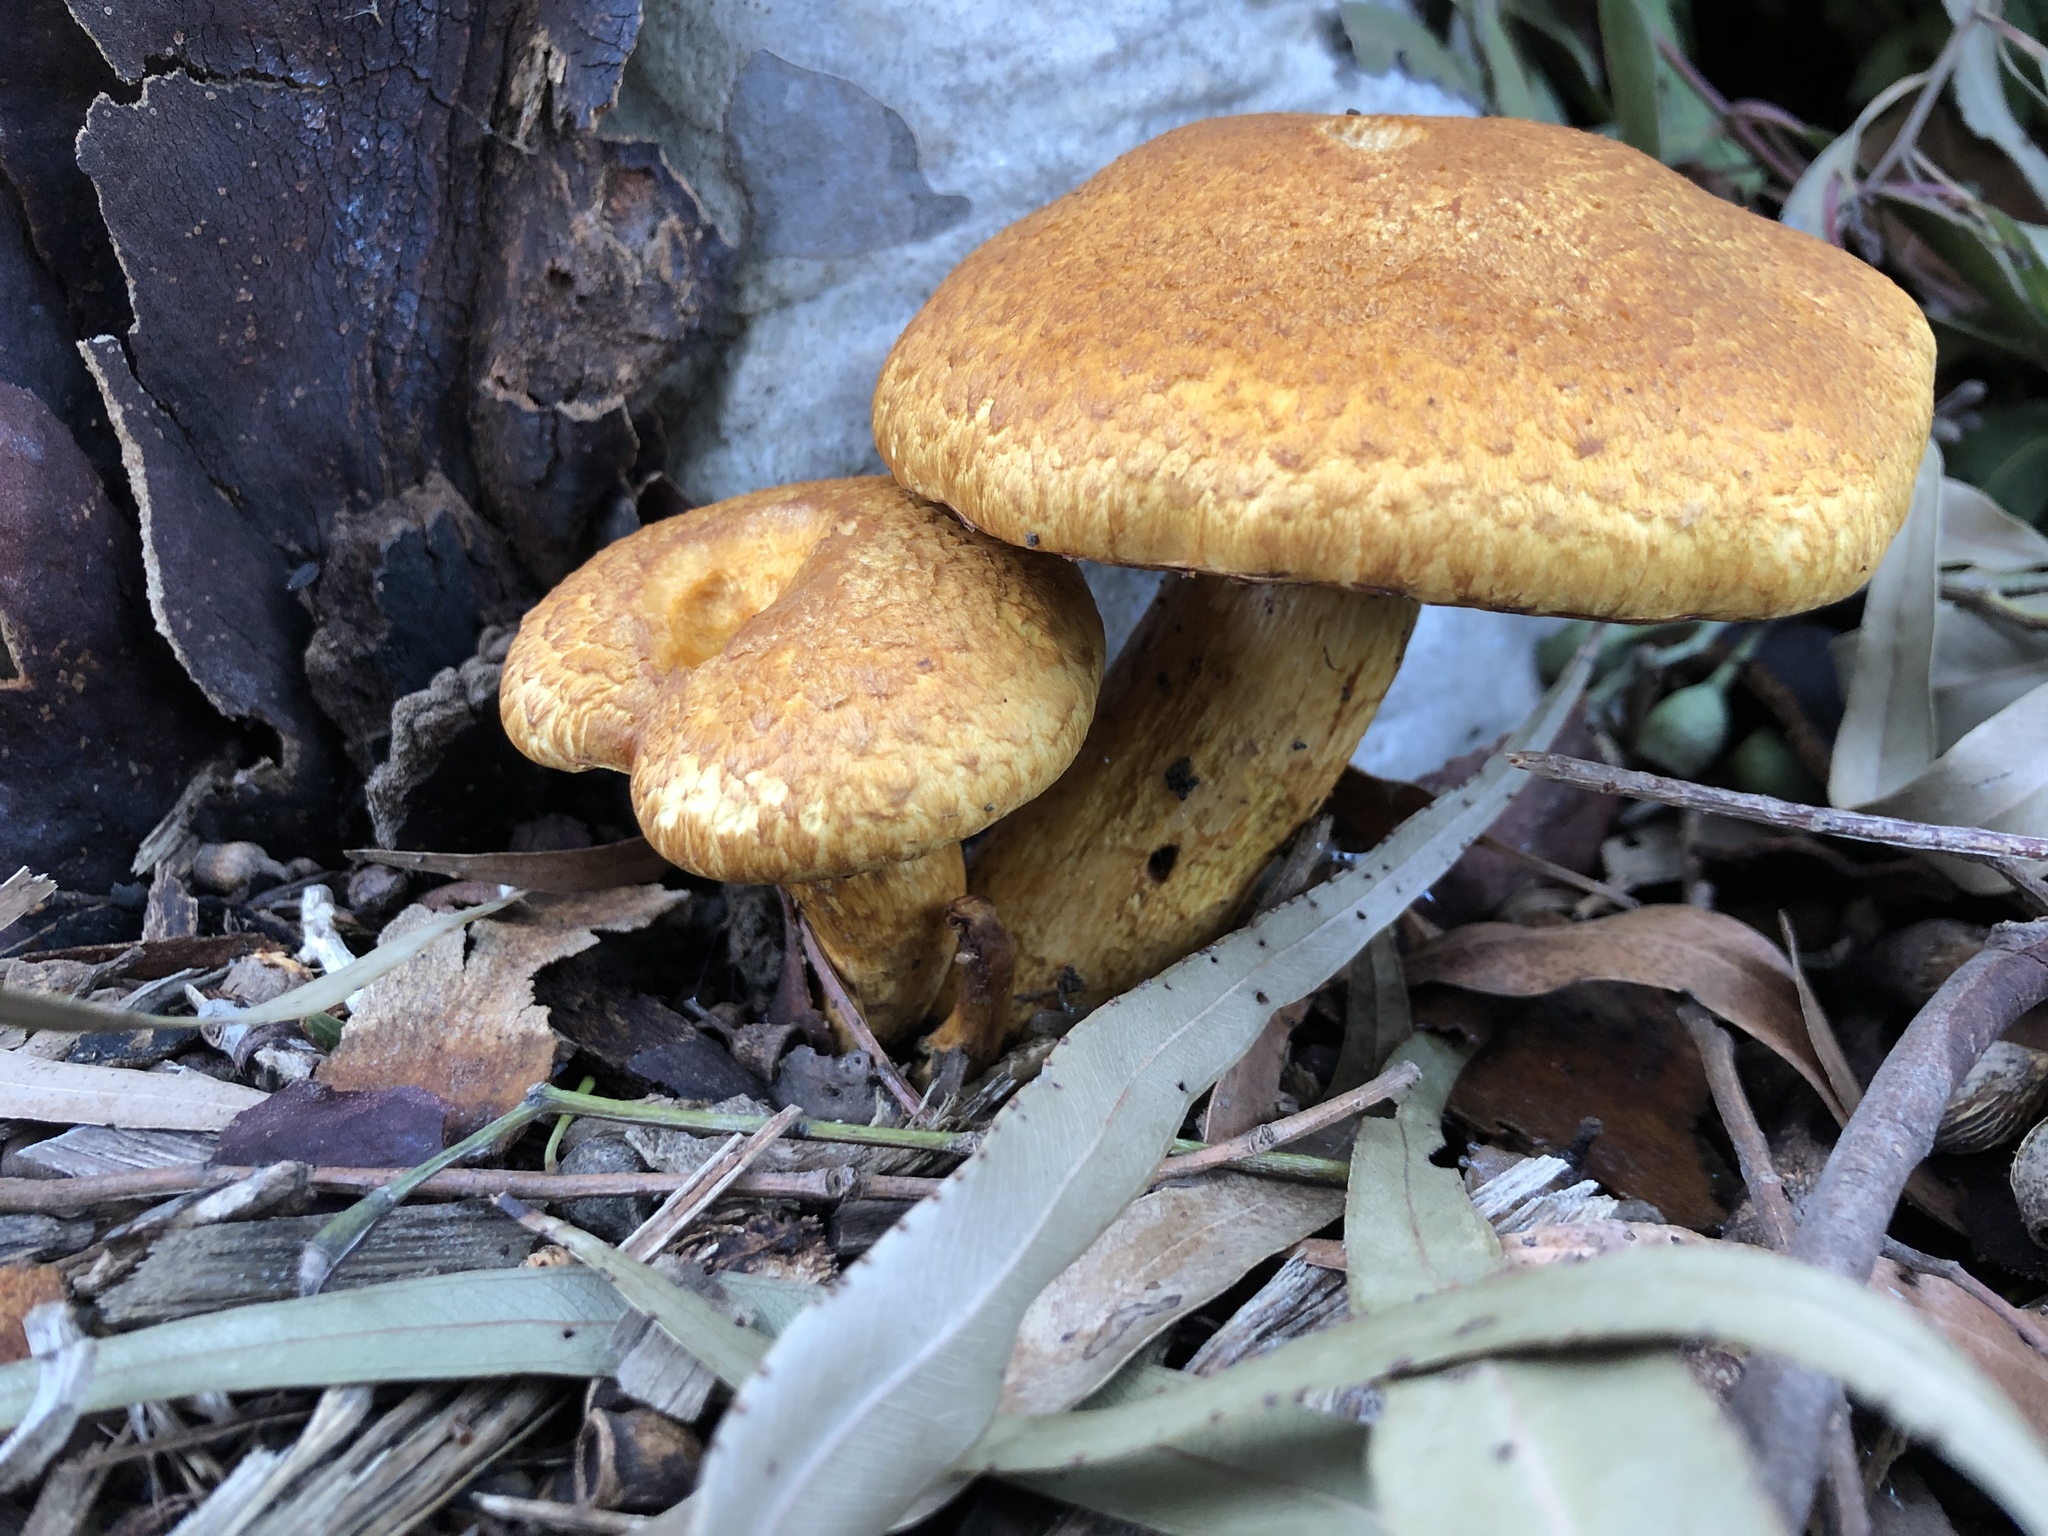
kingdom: Fungi
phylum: Basidiomycota
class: Agaricomycetes
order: Agaricales
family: Hymenogastraceae
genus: Gymnopilus
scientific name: Gymnopilus junonius
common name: Spectacular rustgill
